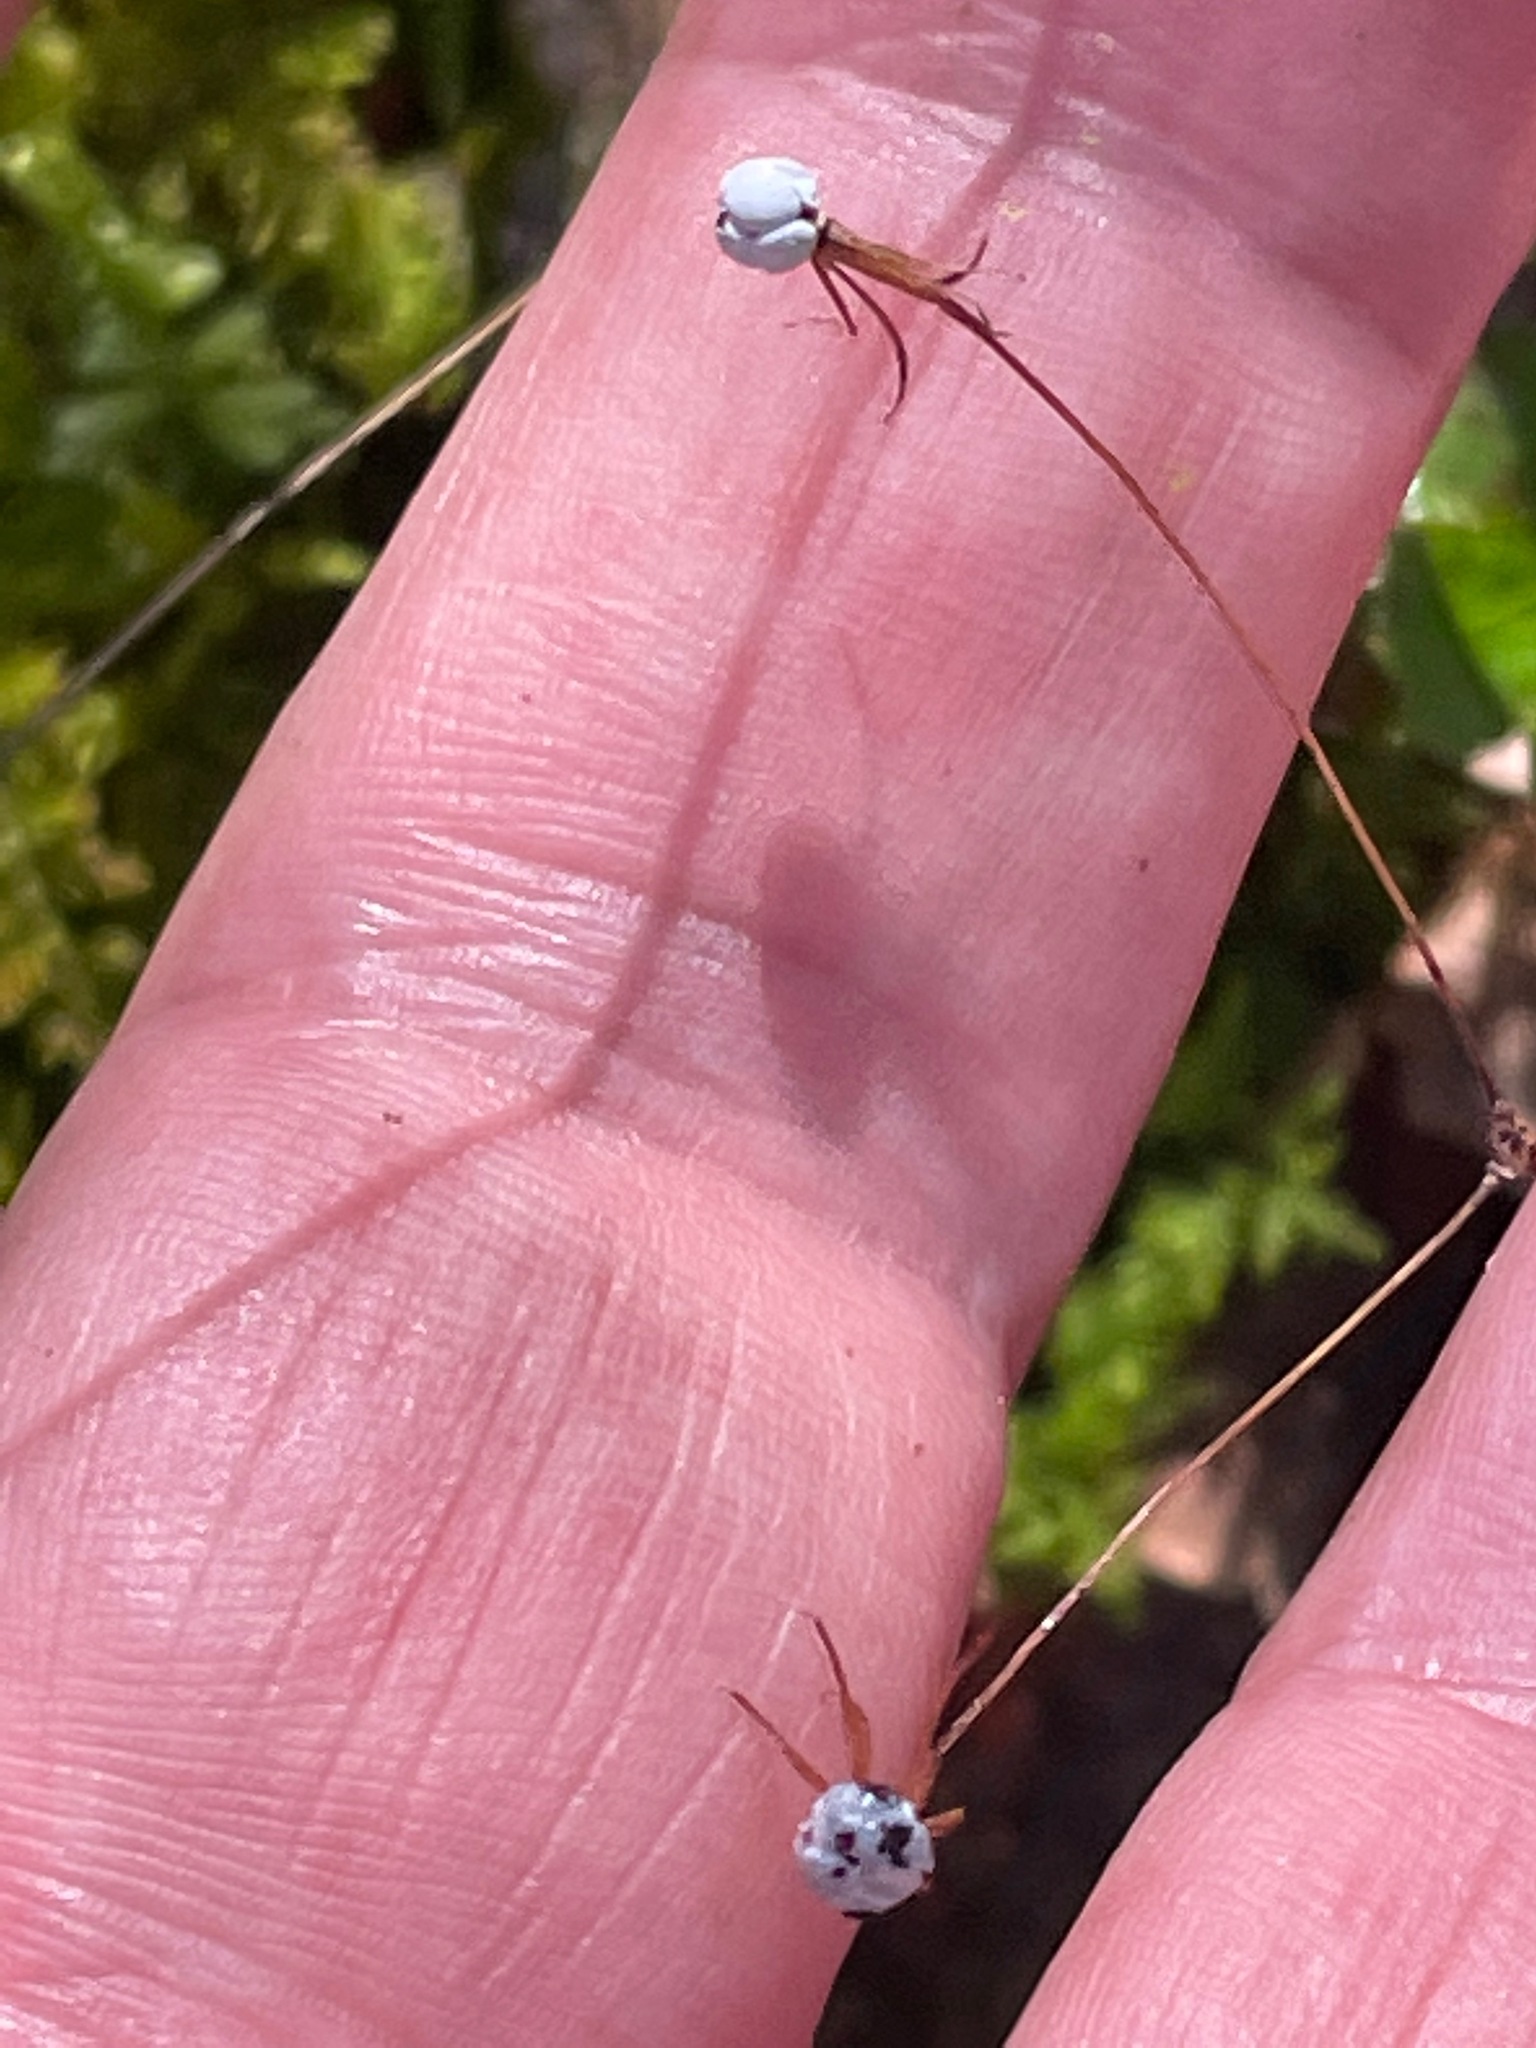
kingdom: Plantae
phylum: Tracheophyta
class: Magnoliopsida
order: Ericales
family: Primulaceae
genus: Lysimachia
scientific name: Lysimachia borealis
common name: American starflower
